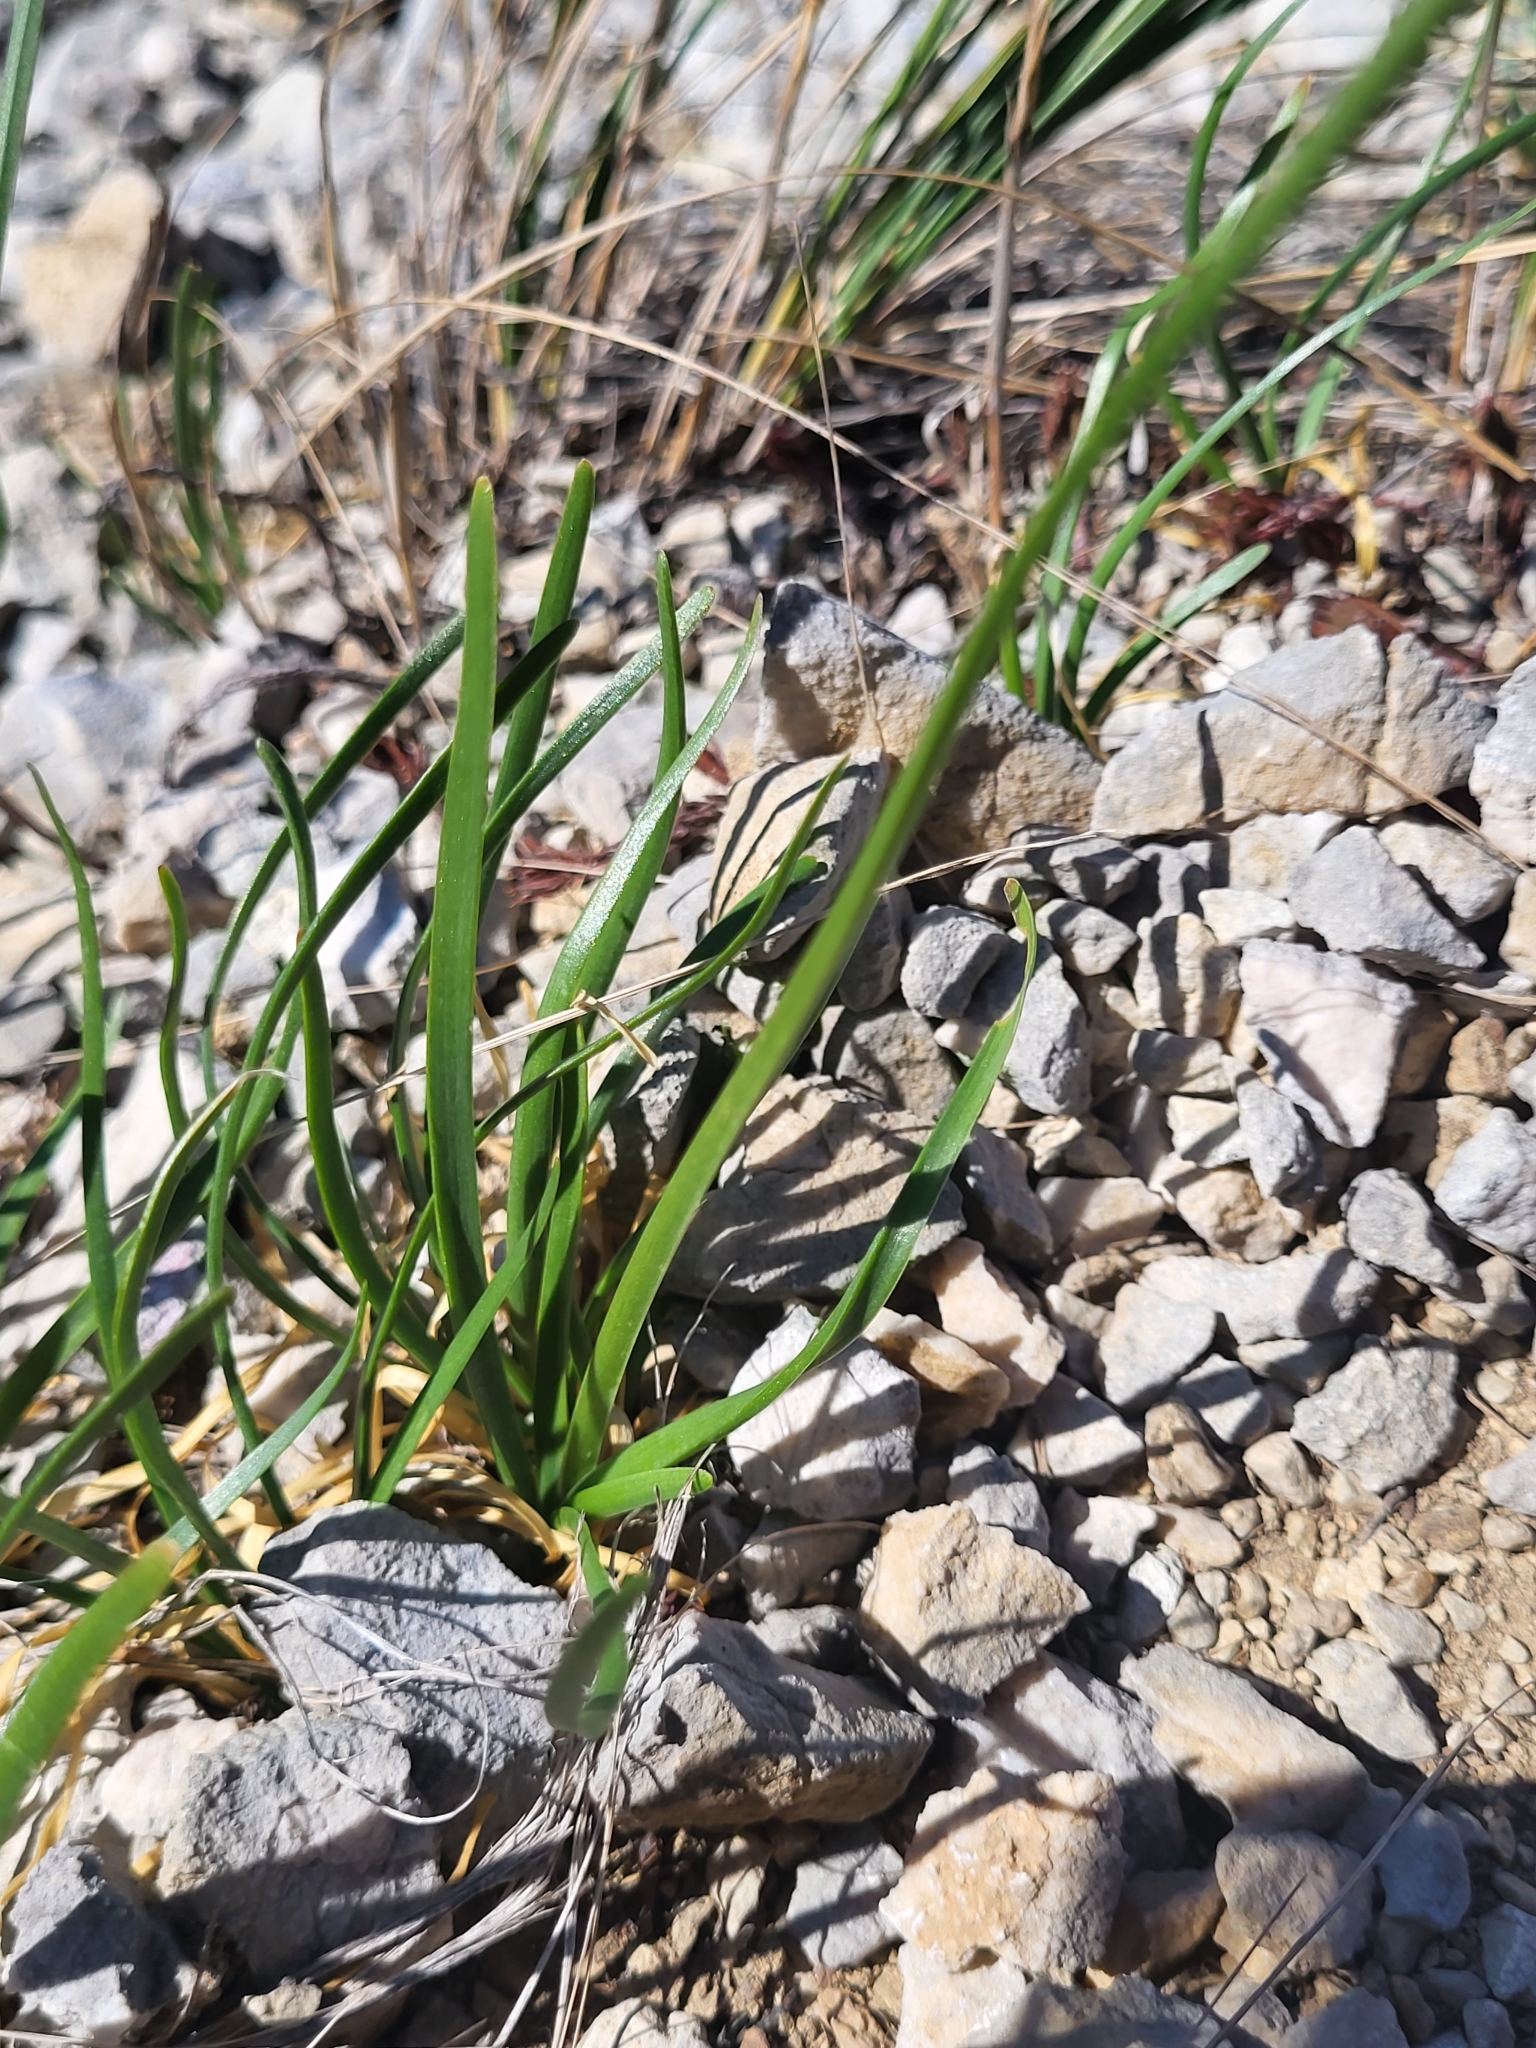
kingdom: Plantae
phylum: Tracheophyta
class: Liliopsida
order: Asparagales
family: Amaryllidaceae
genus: Allium
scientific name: Allium lusitanicum
